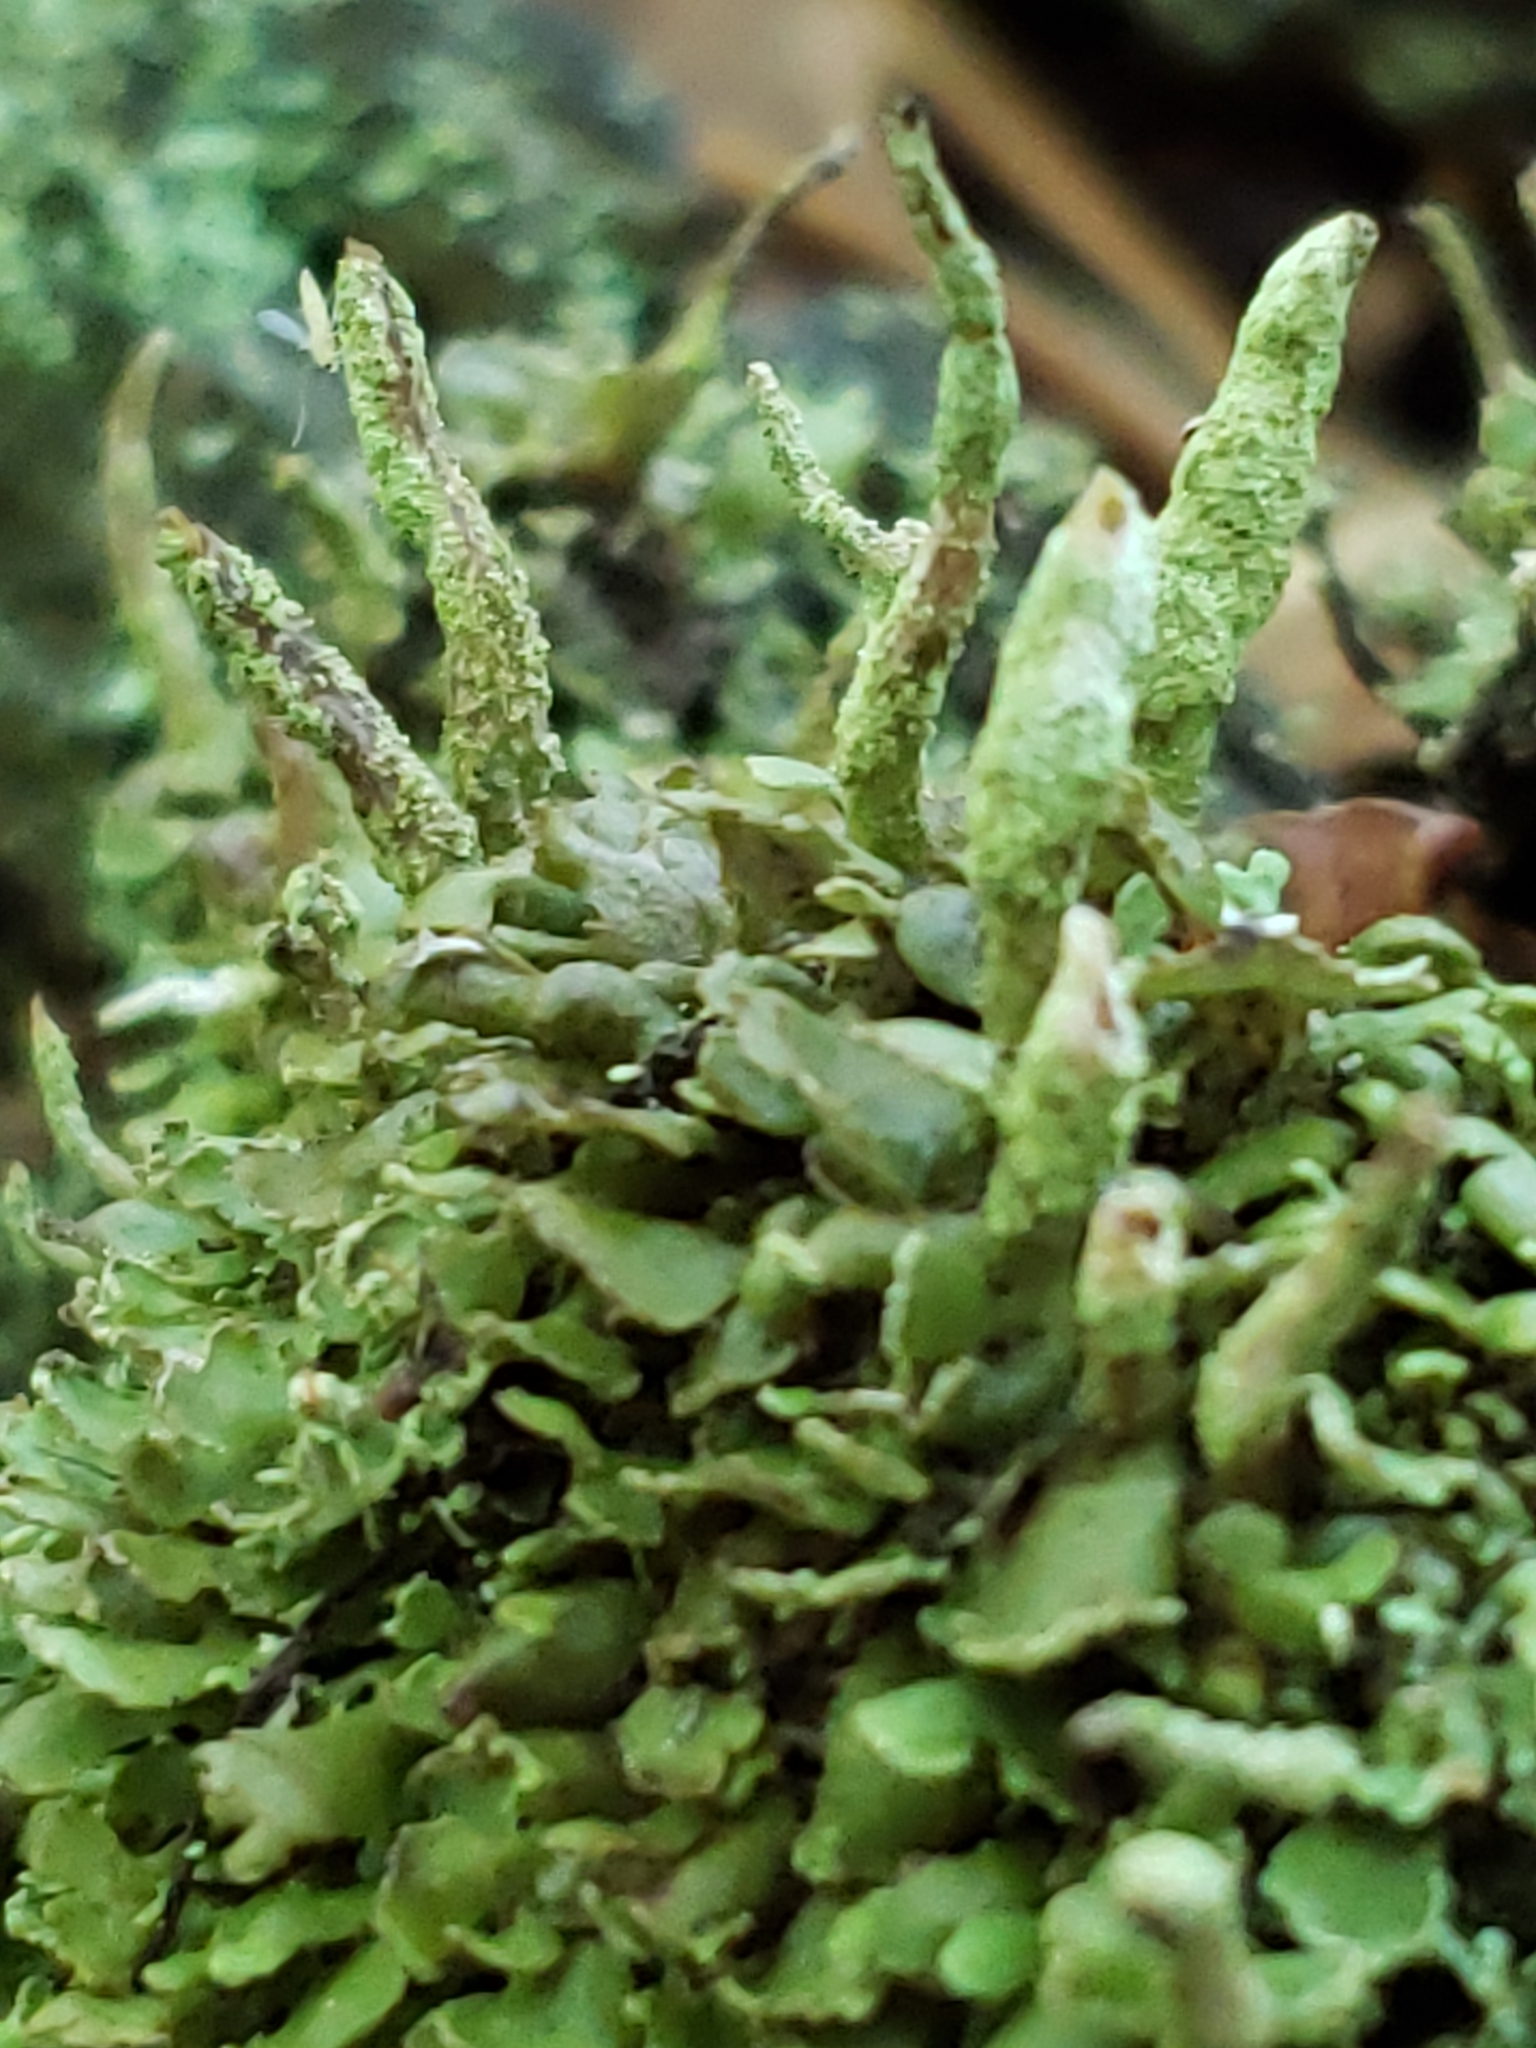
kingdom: Fungi
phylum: Ascomycota
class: Lecanoromycetes
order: Lecanorales
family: Cladoniaceae
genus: Cladonia
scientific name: Cladonia ochrochlora
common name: Smooth-footed powderhorn
